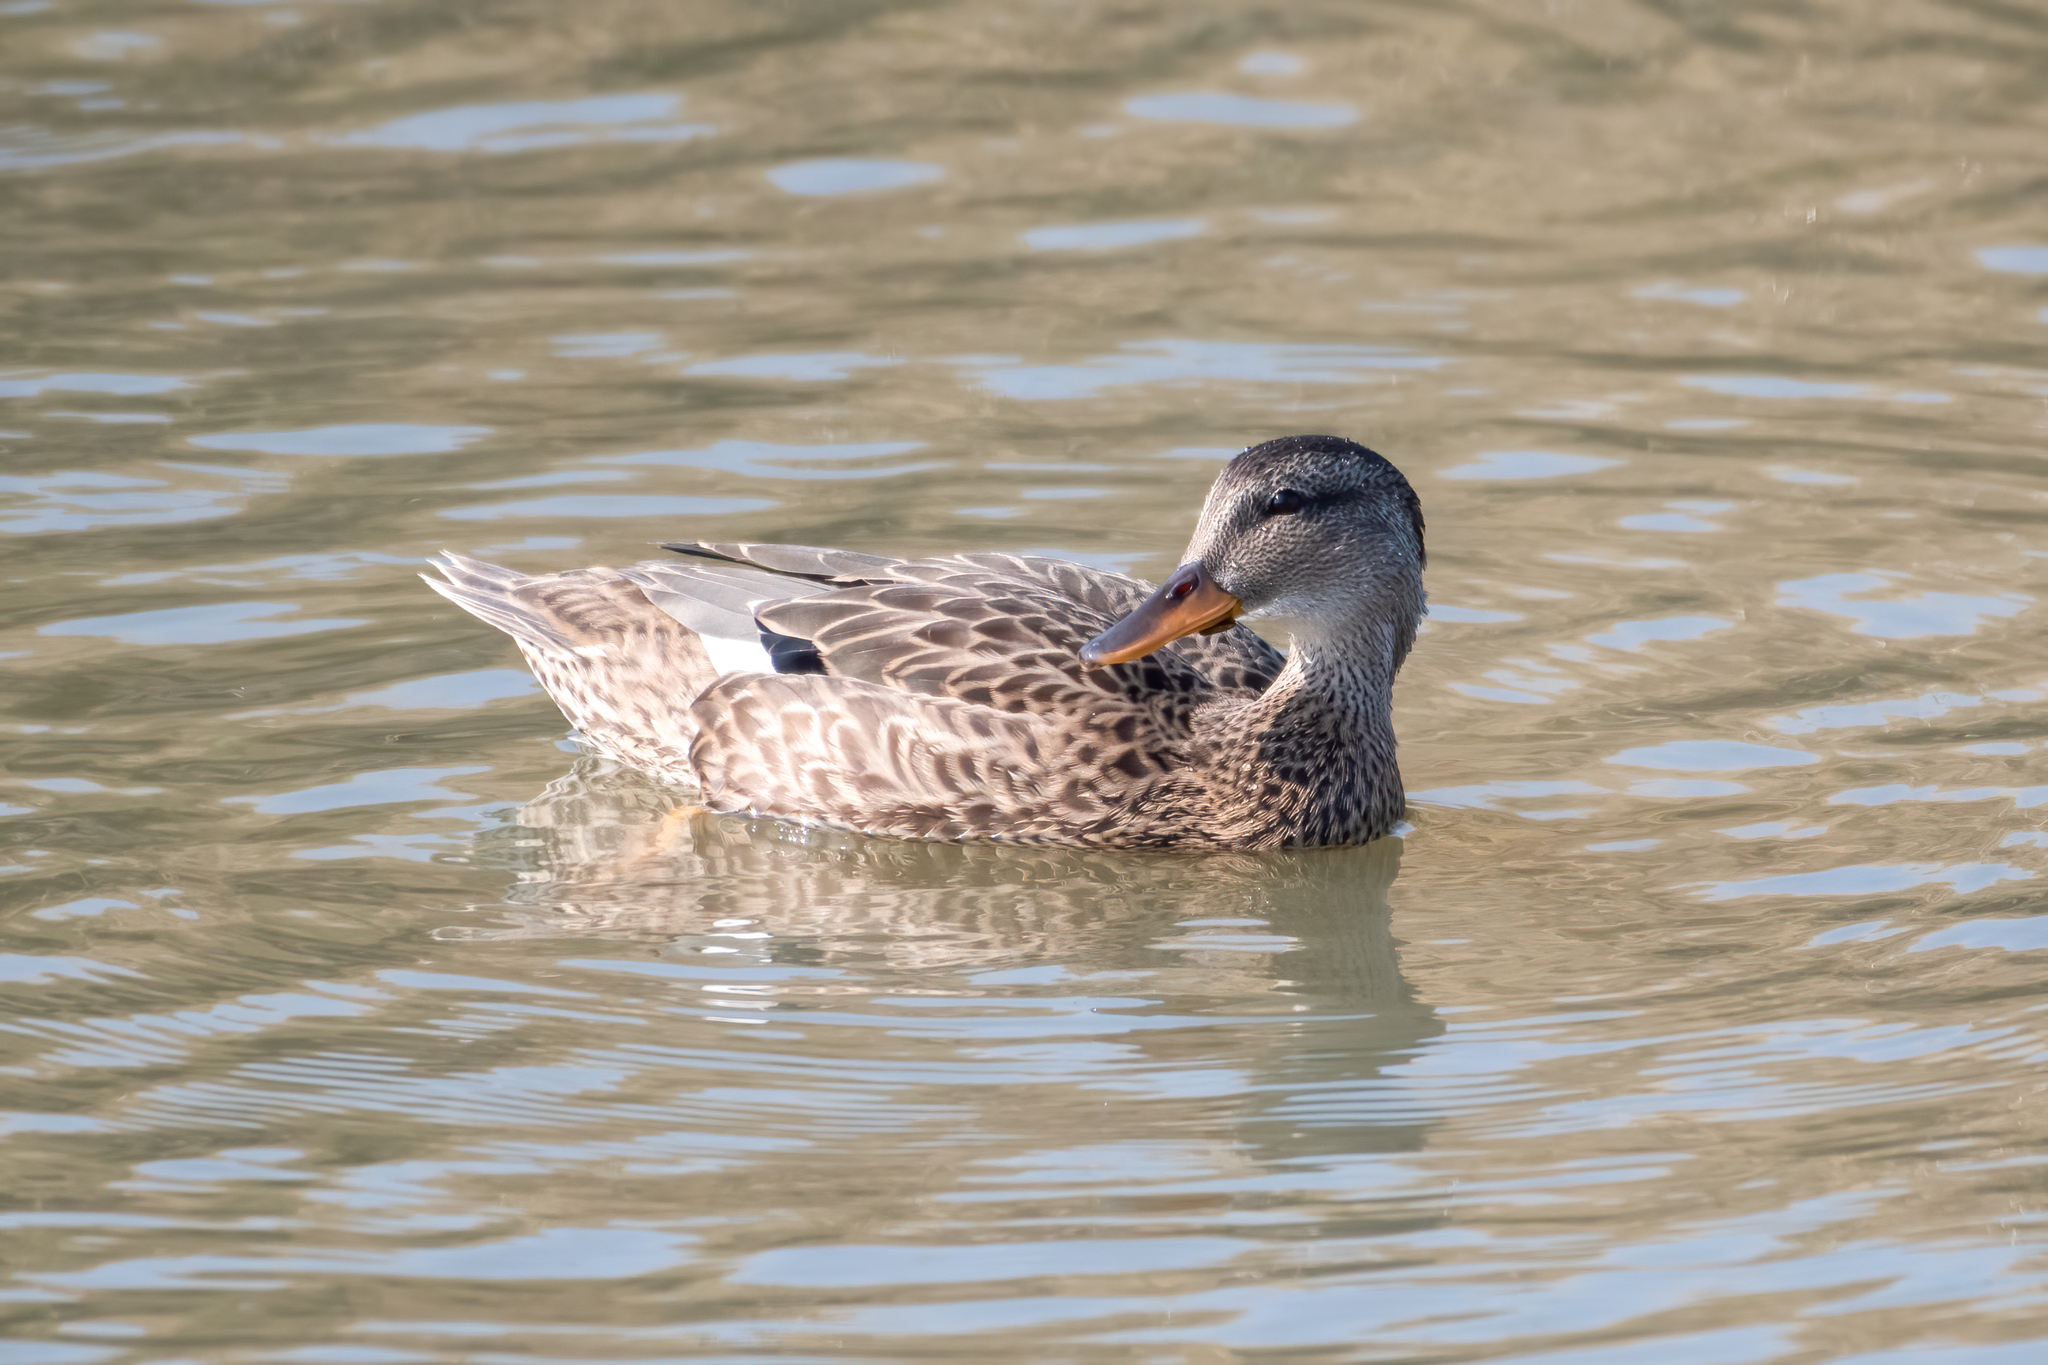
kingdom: Animalia
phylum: Chordata
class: Aves
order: Anseriformes
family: Anatidae
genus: Anas
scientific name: Anas platyrhynchos
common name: Mallard
